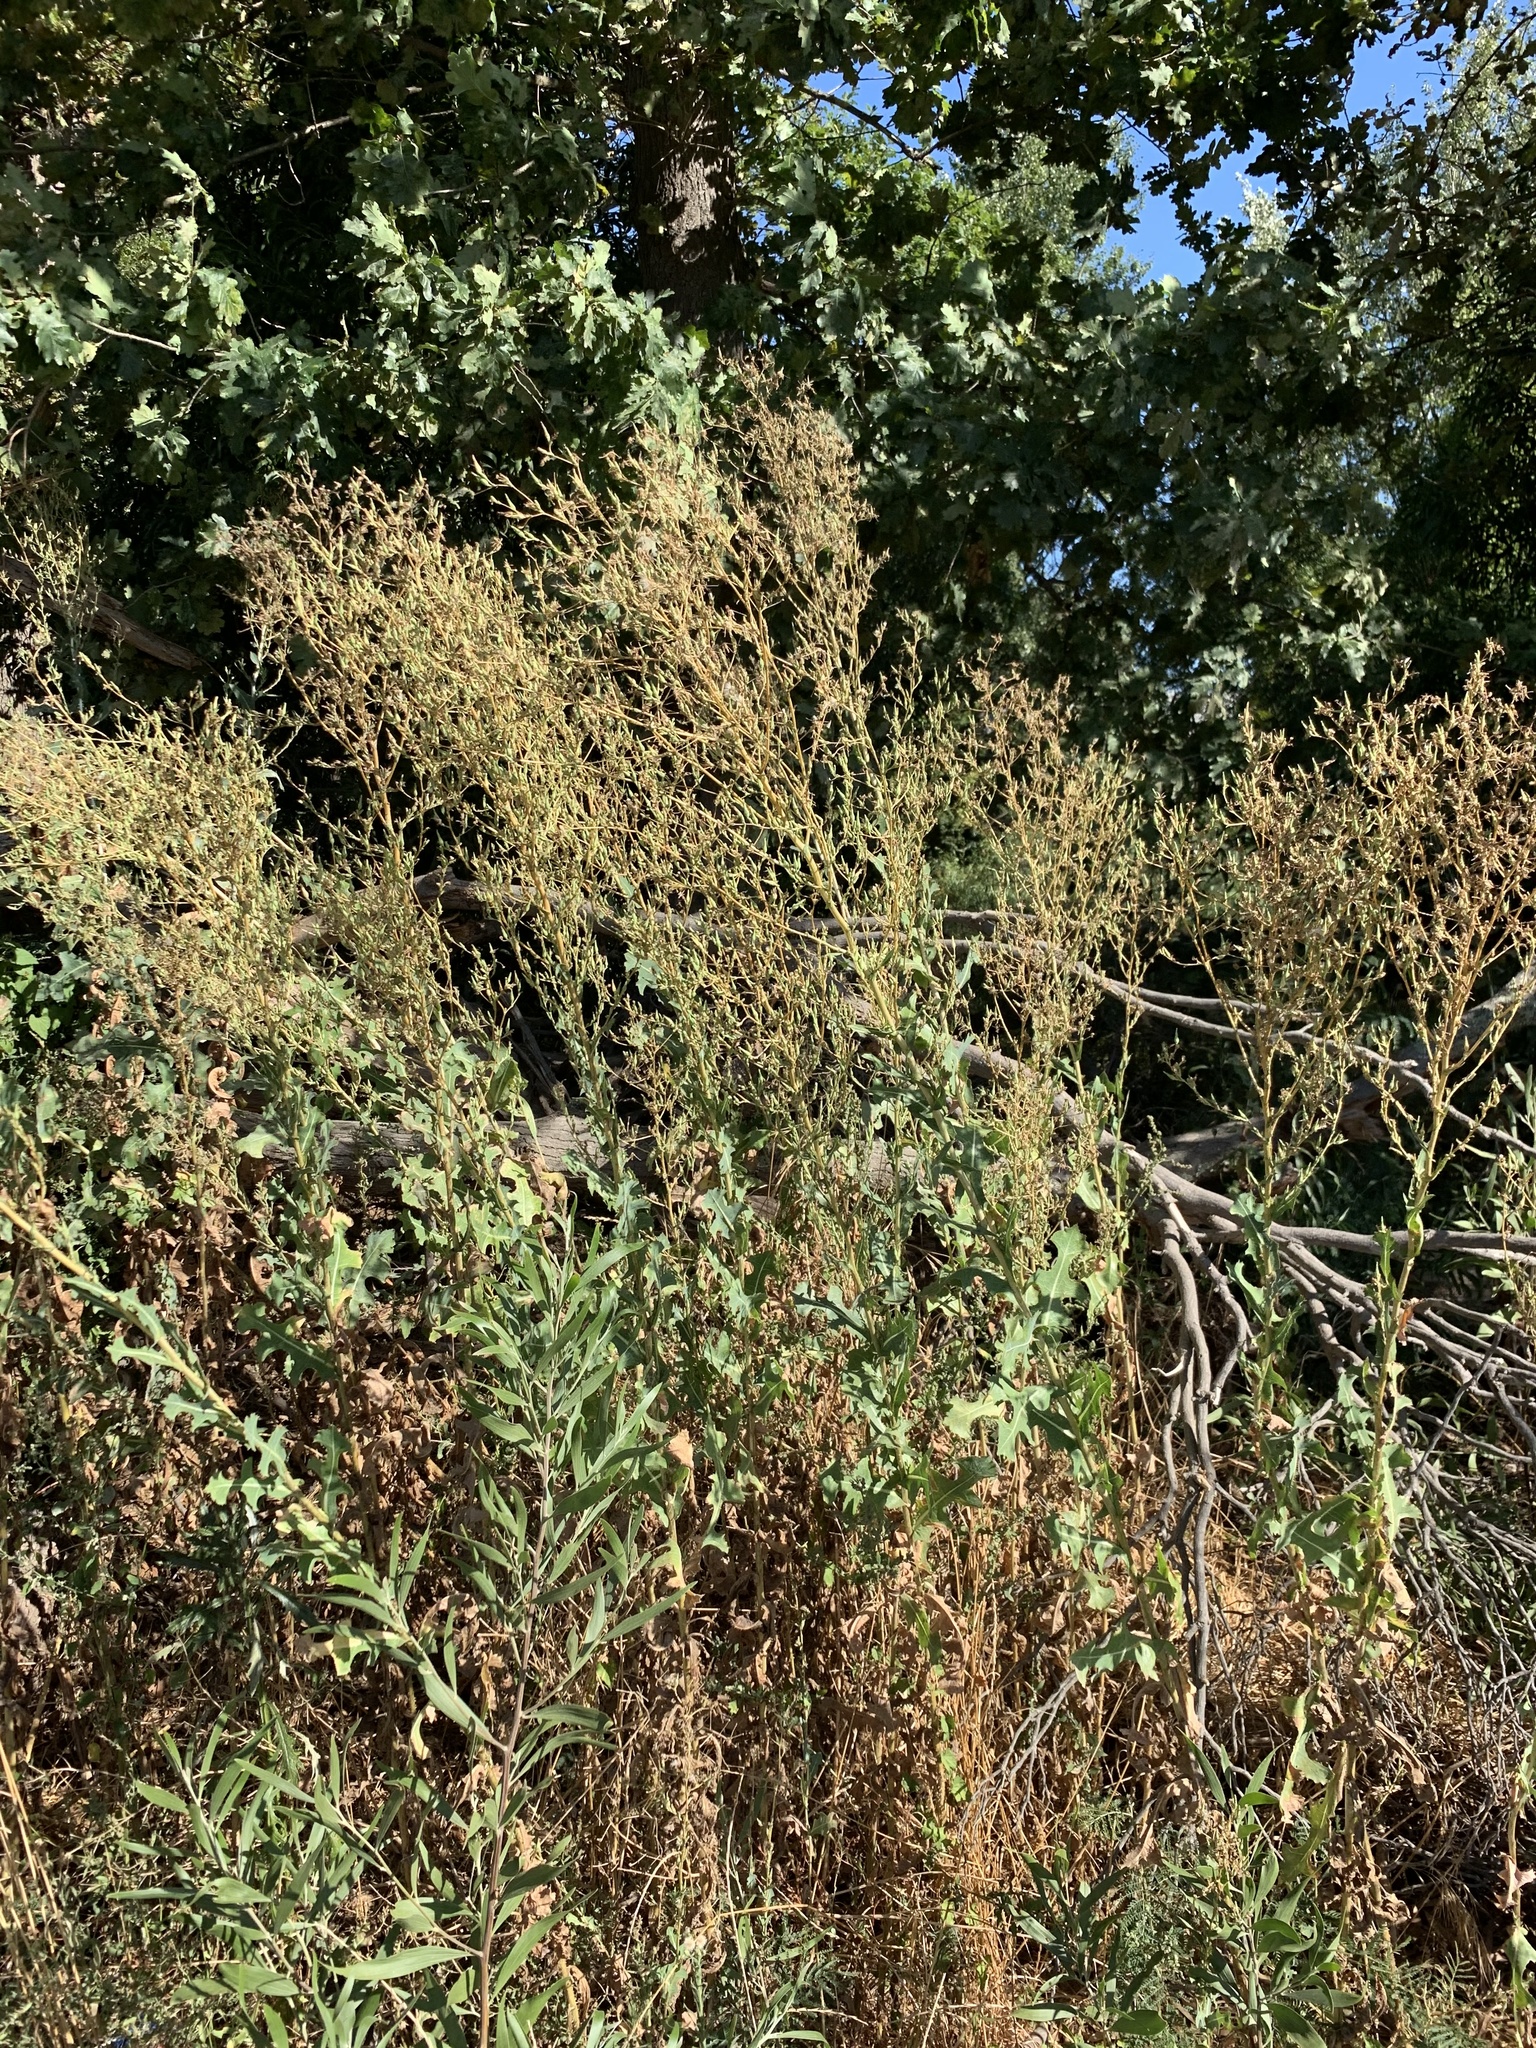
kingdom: Plantae
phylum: Tracheophyta
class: Magnoliopsida
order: Asterales
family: Asteraceae
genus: Lactuca
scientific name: Lactuca serriola
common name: Prickly lettuce
